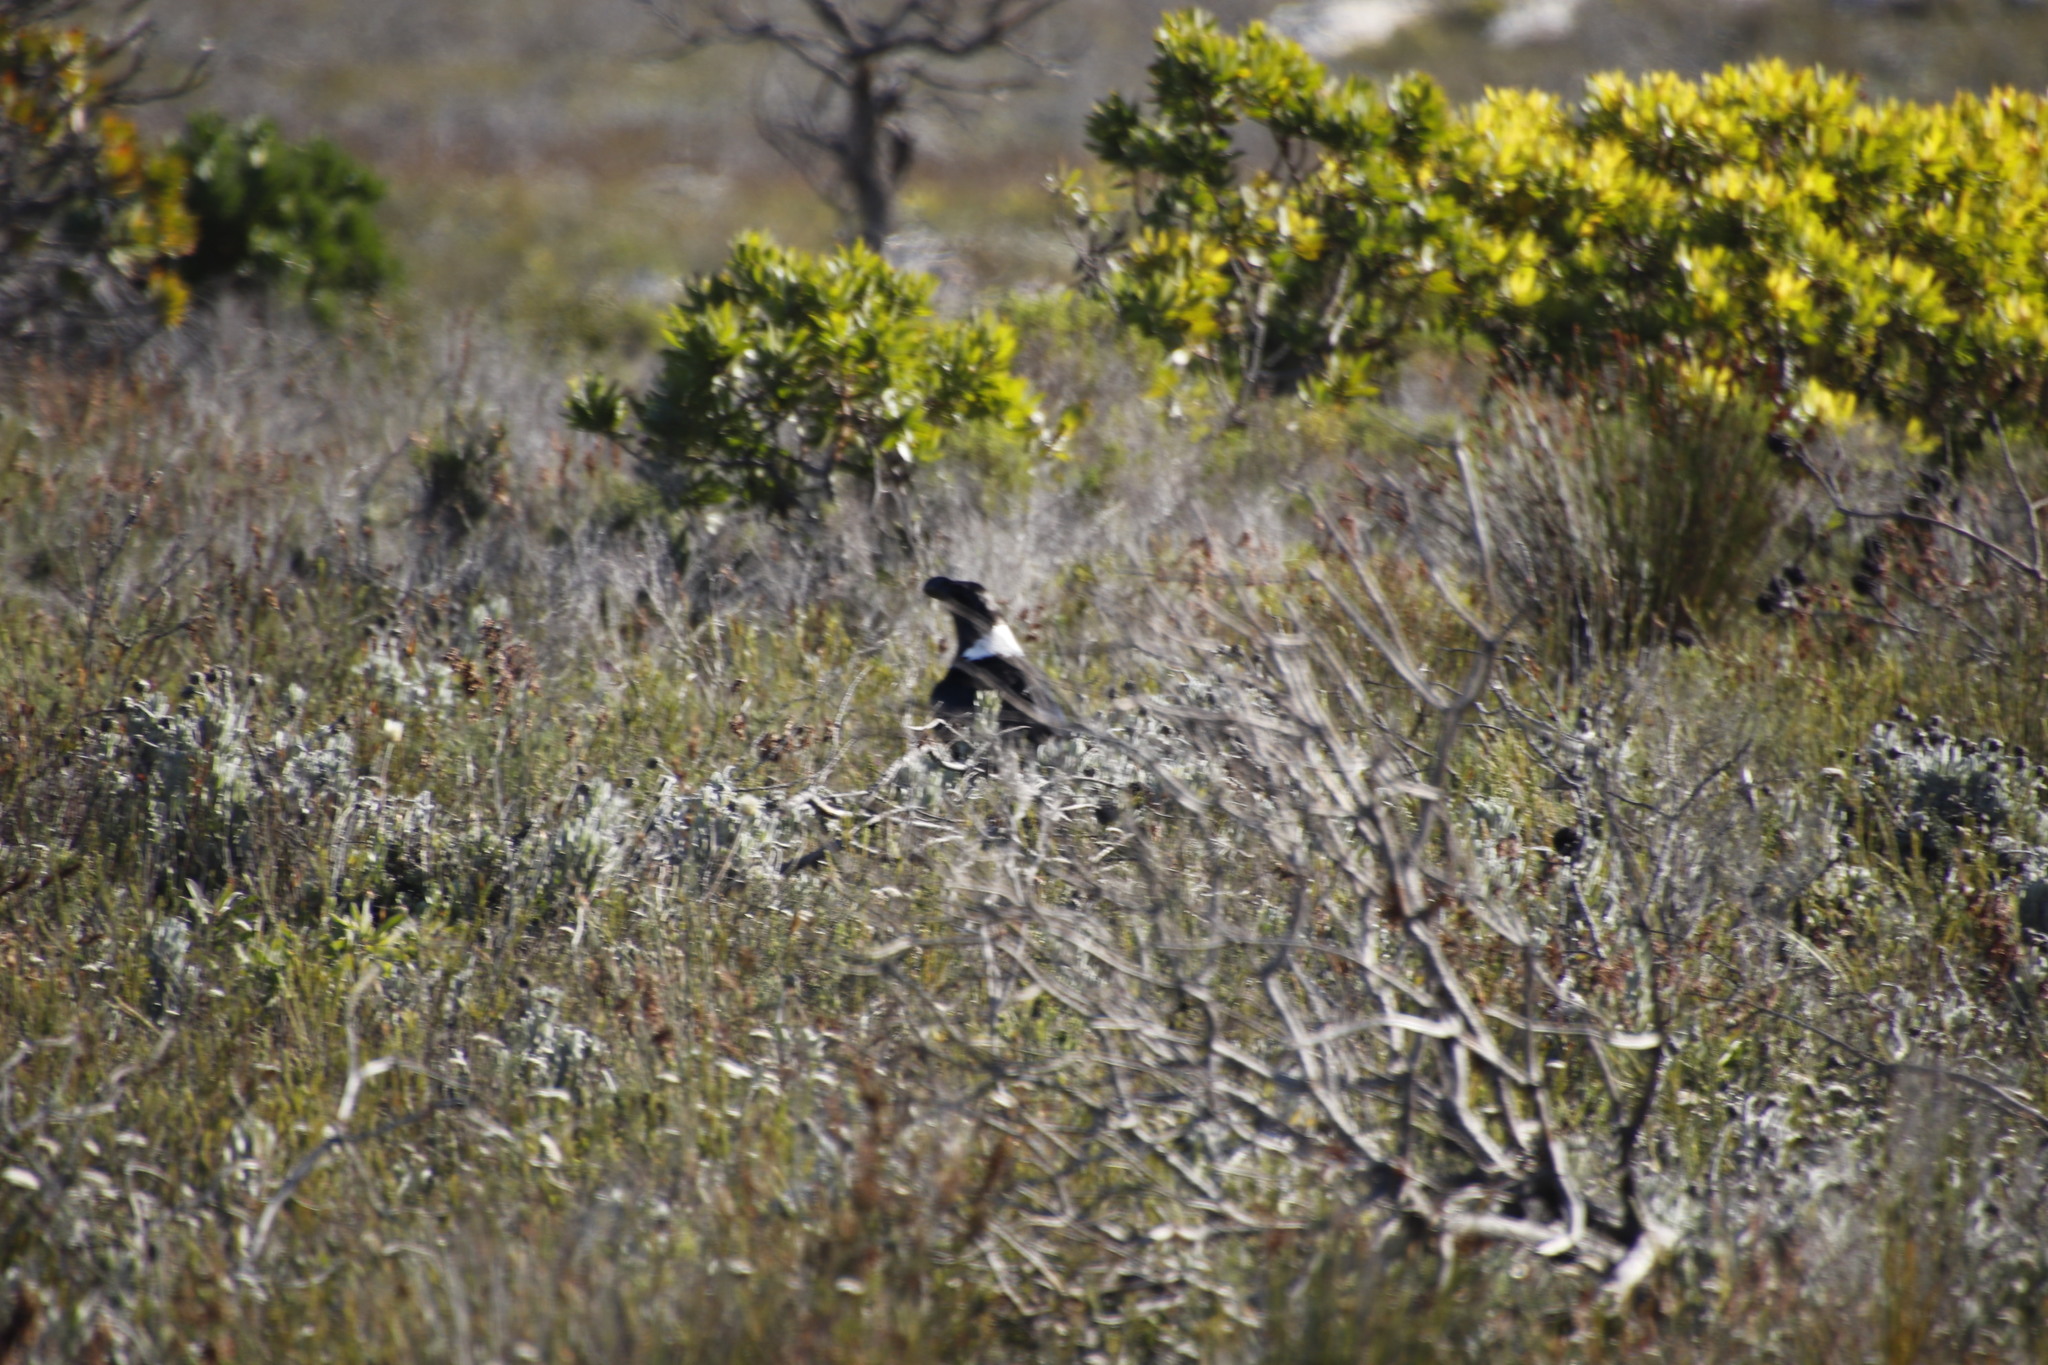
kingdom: Animalia
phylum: Chordata
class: Aves
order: Passeriformes
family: Corvidae
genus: Corvus
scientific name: Corvus albicollis
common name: White-necked raven
